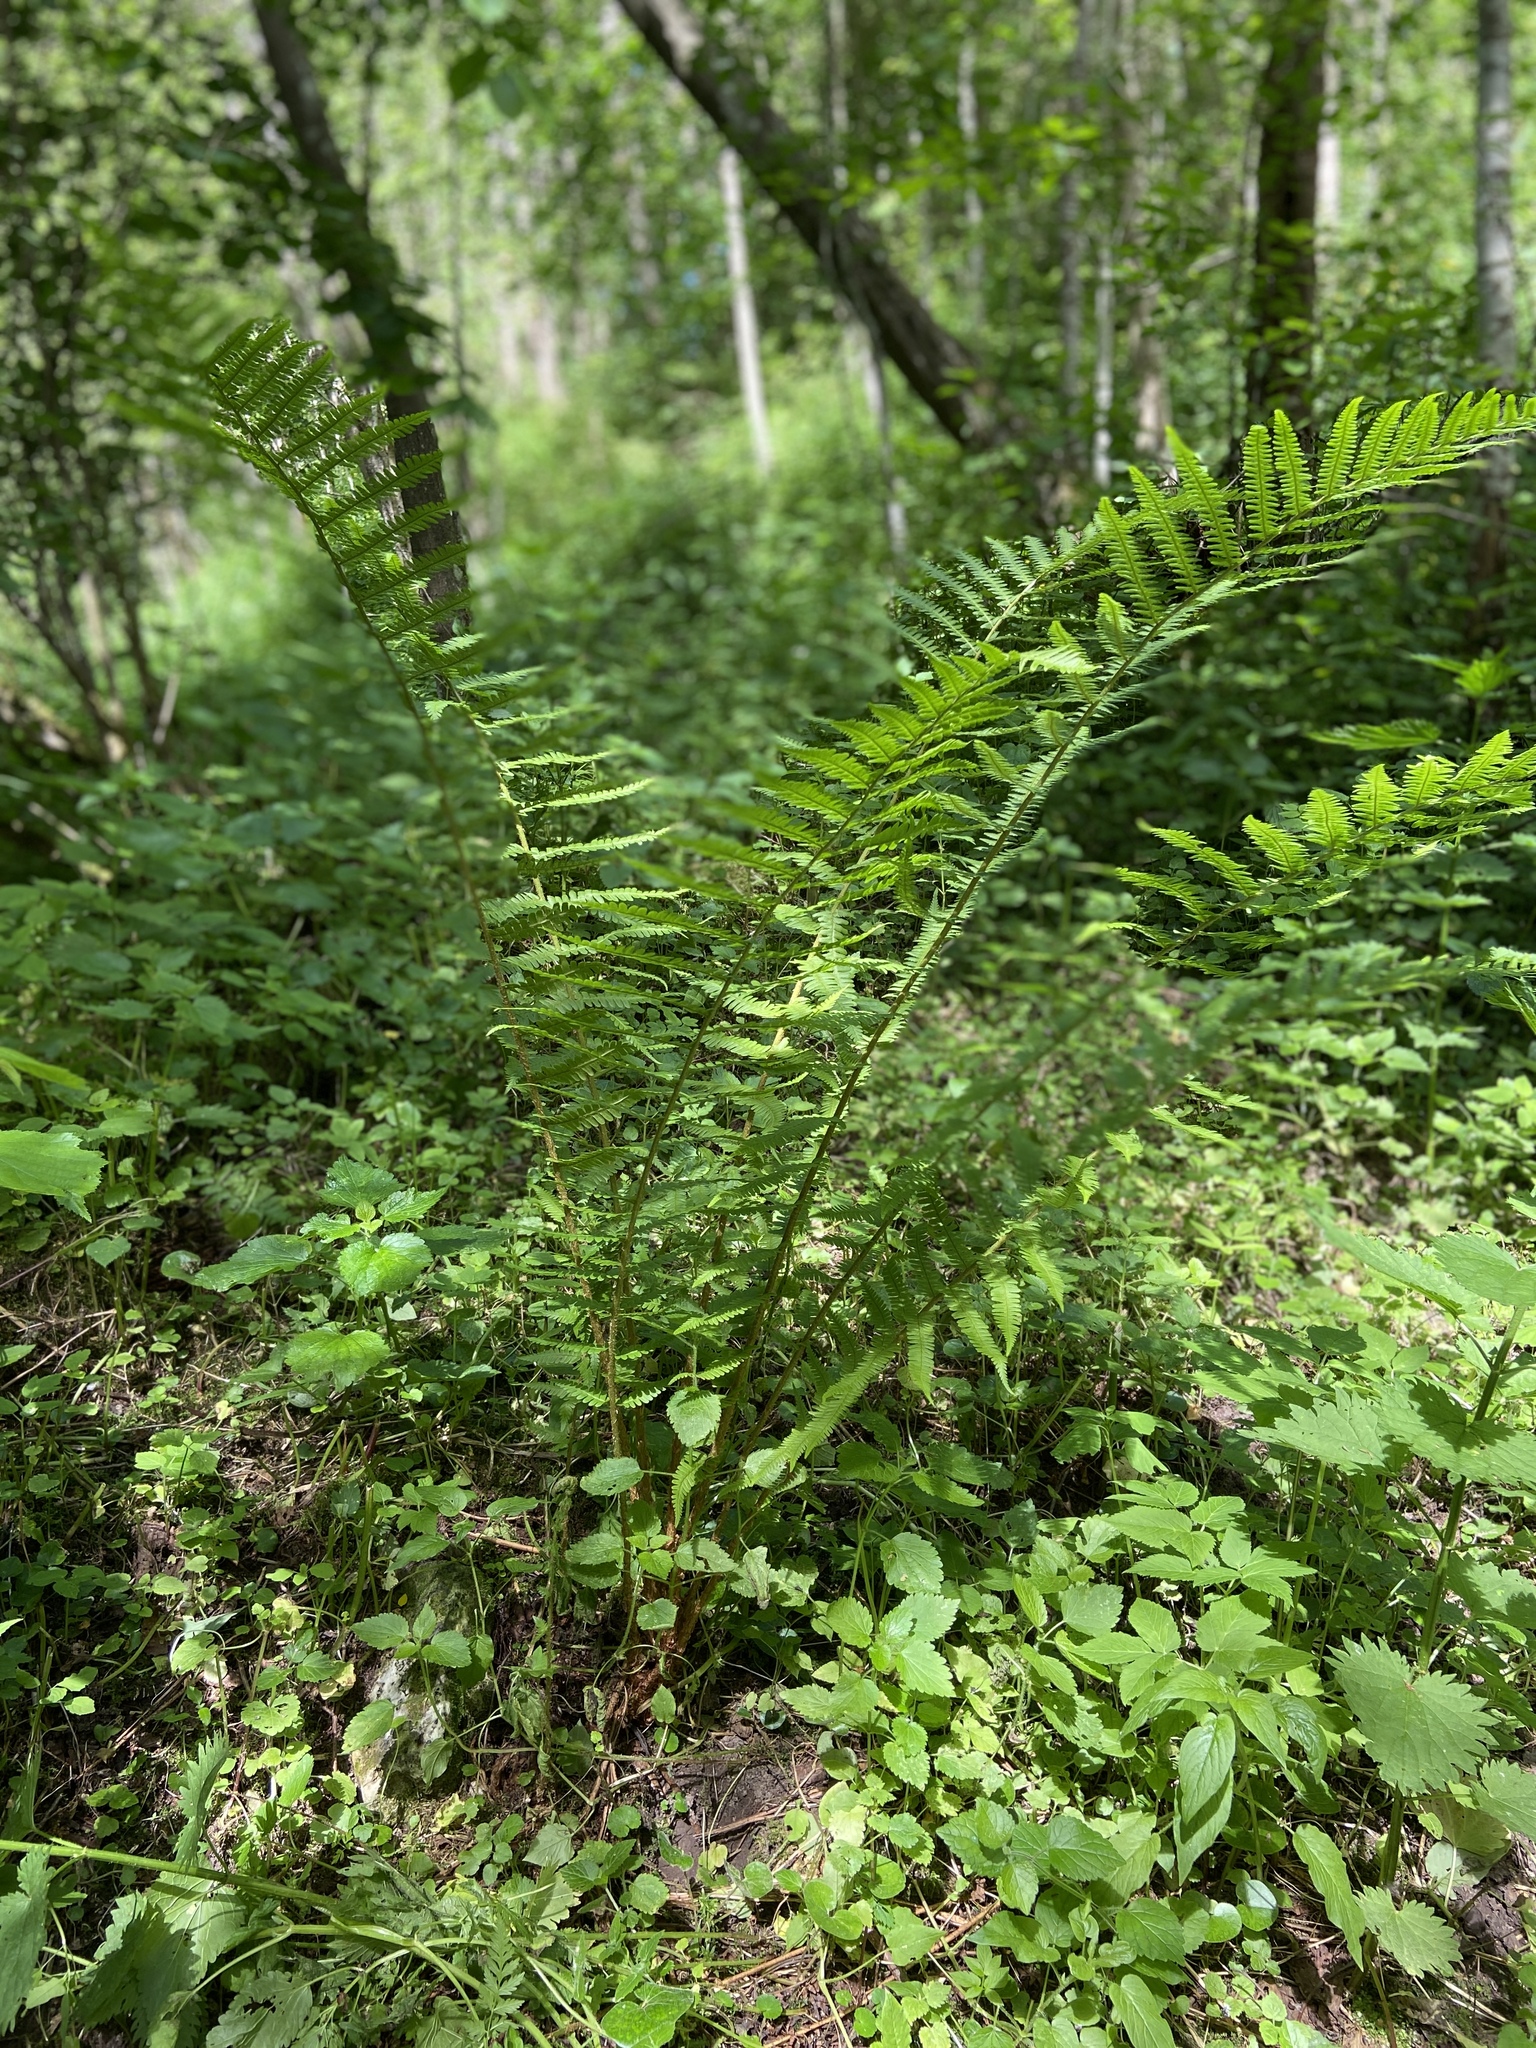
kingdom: Plantae
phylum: Tracheophyta
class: Polypodiopsida
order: Polypodiales
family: Dryopteridaceae
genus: Dryopteris
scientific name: Dryopteris filix-mas
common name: Male fern
